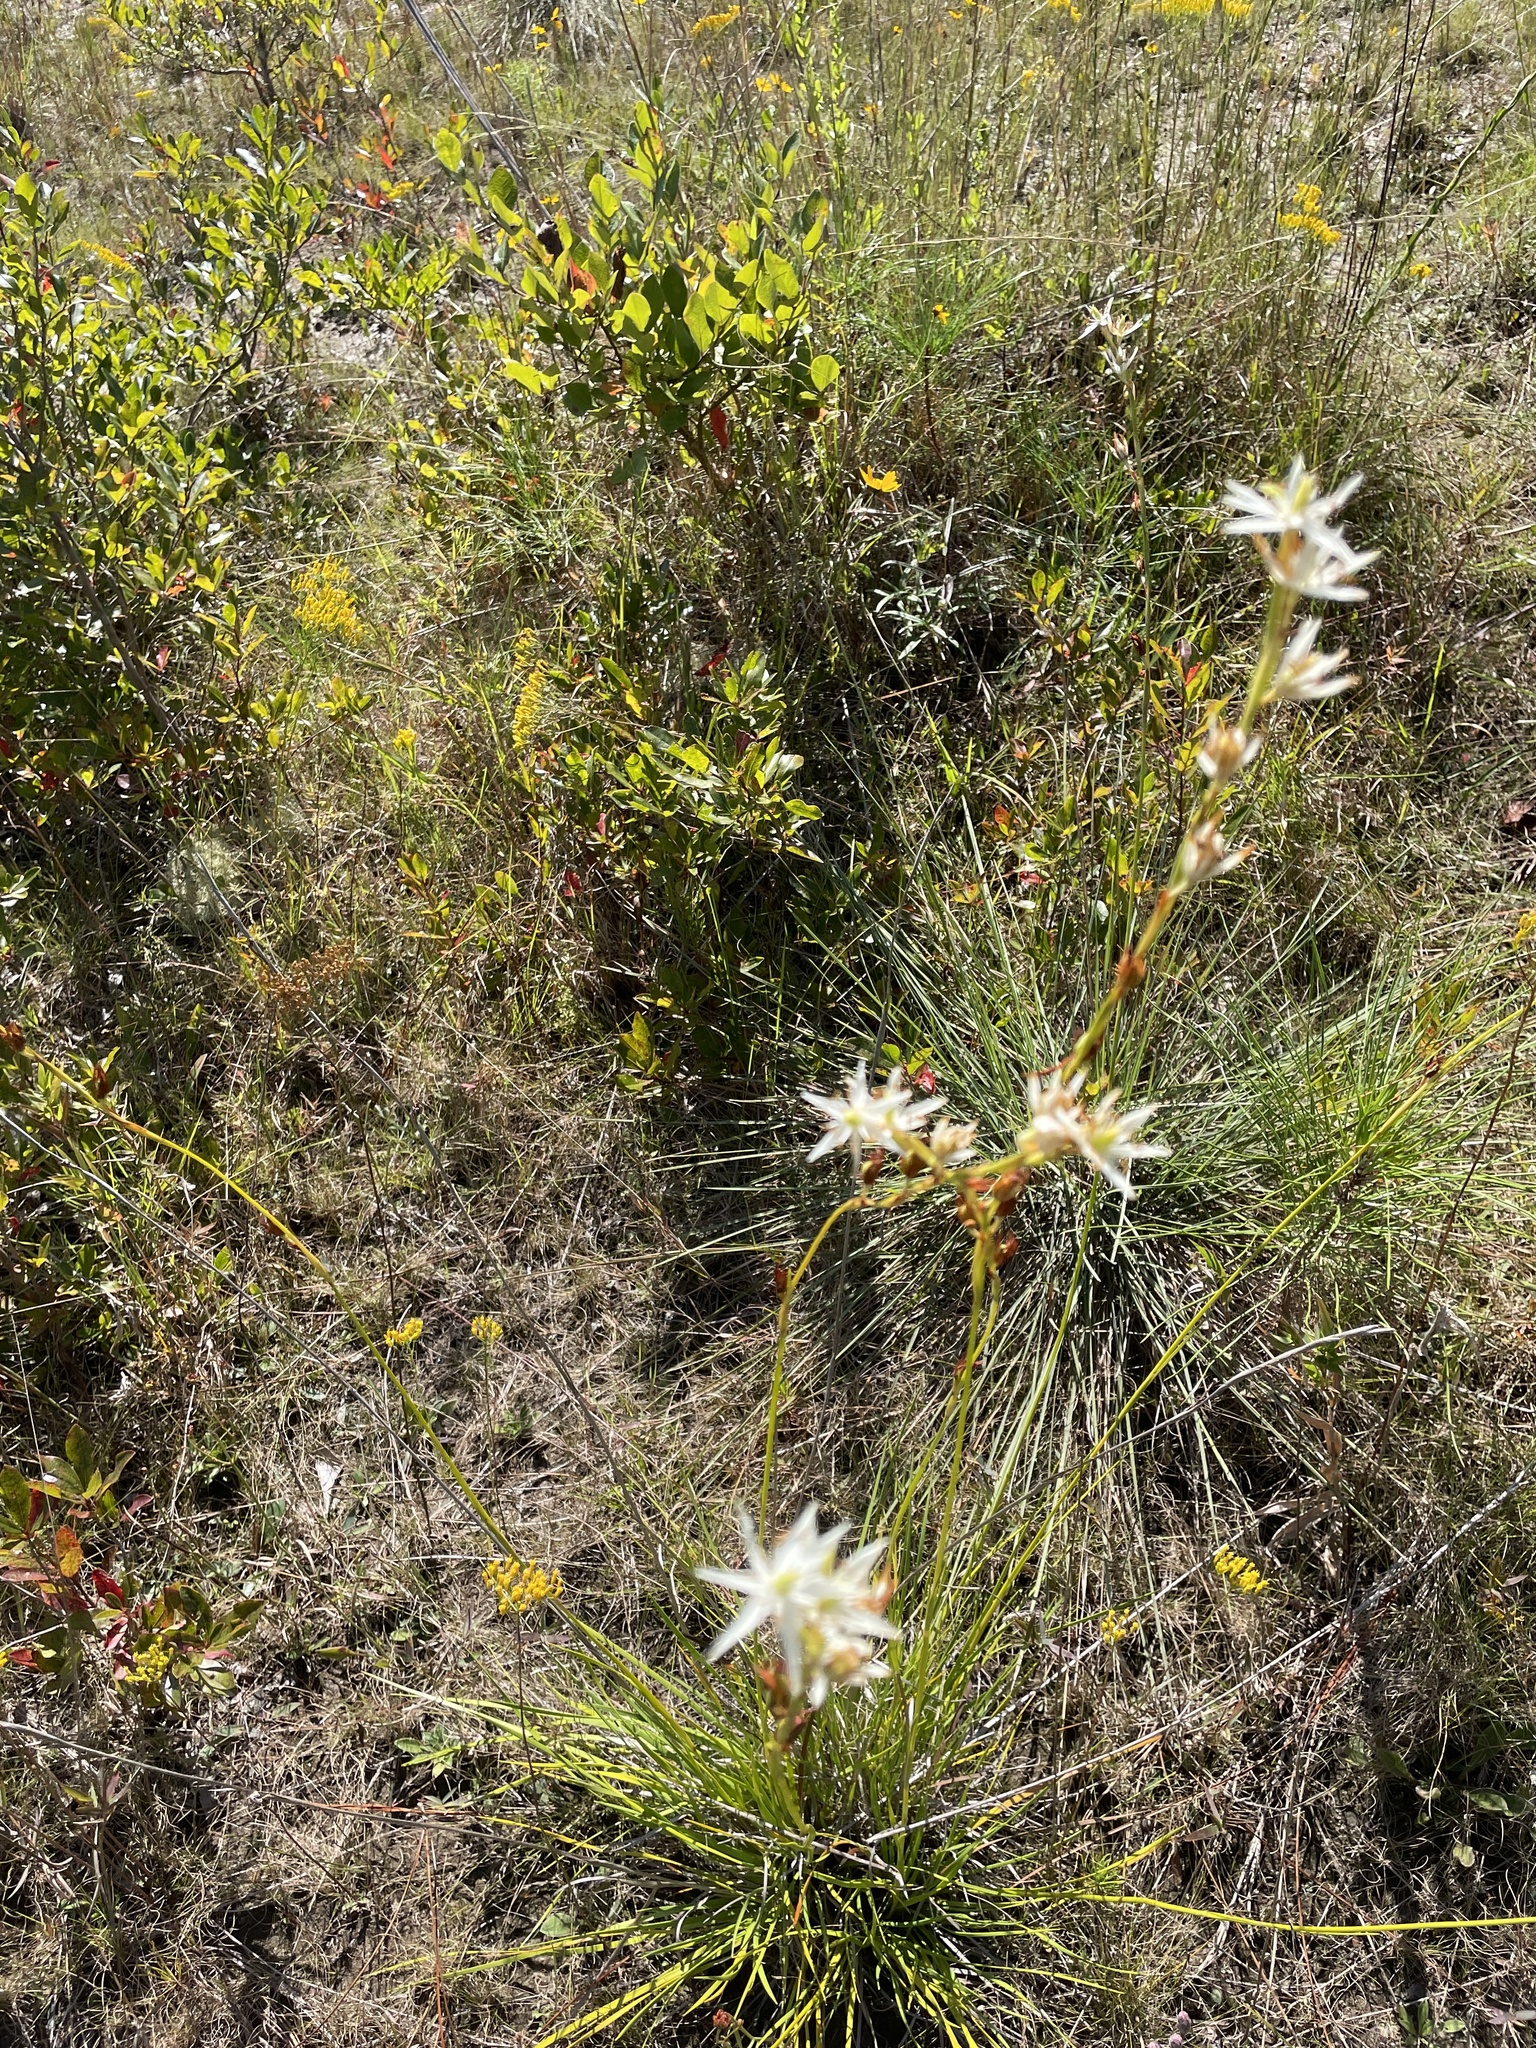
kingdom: Plantae
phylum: Tracheophyta
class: Liliopsida
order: Alismatales
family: Tofieldiaceae
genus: Pleea
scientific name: Pleea tenuifolia
